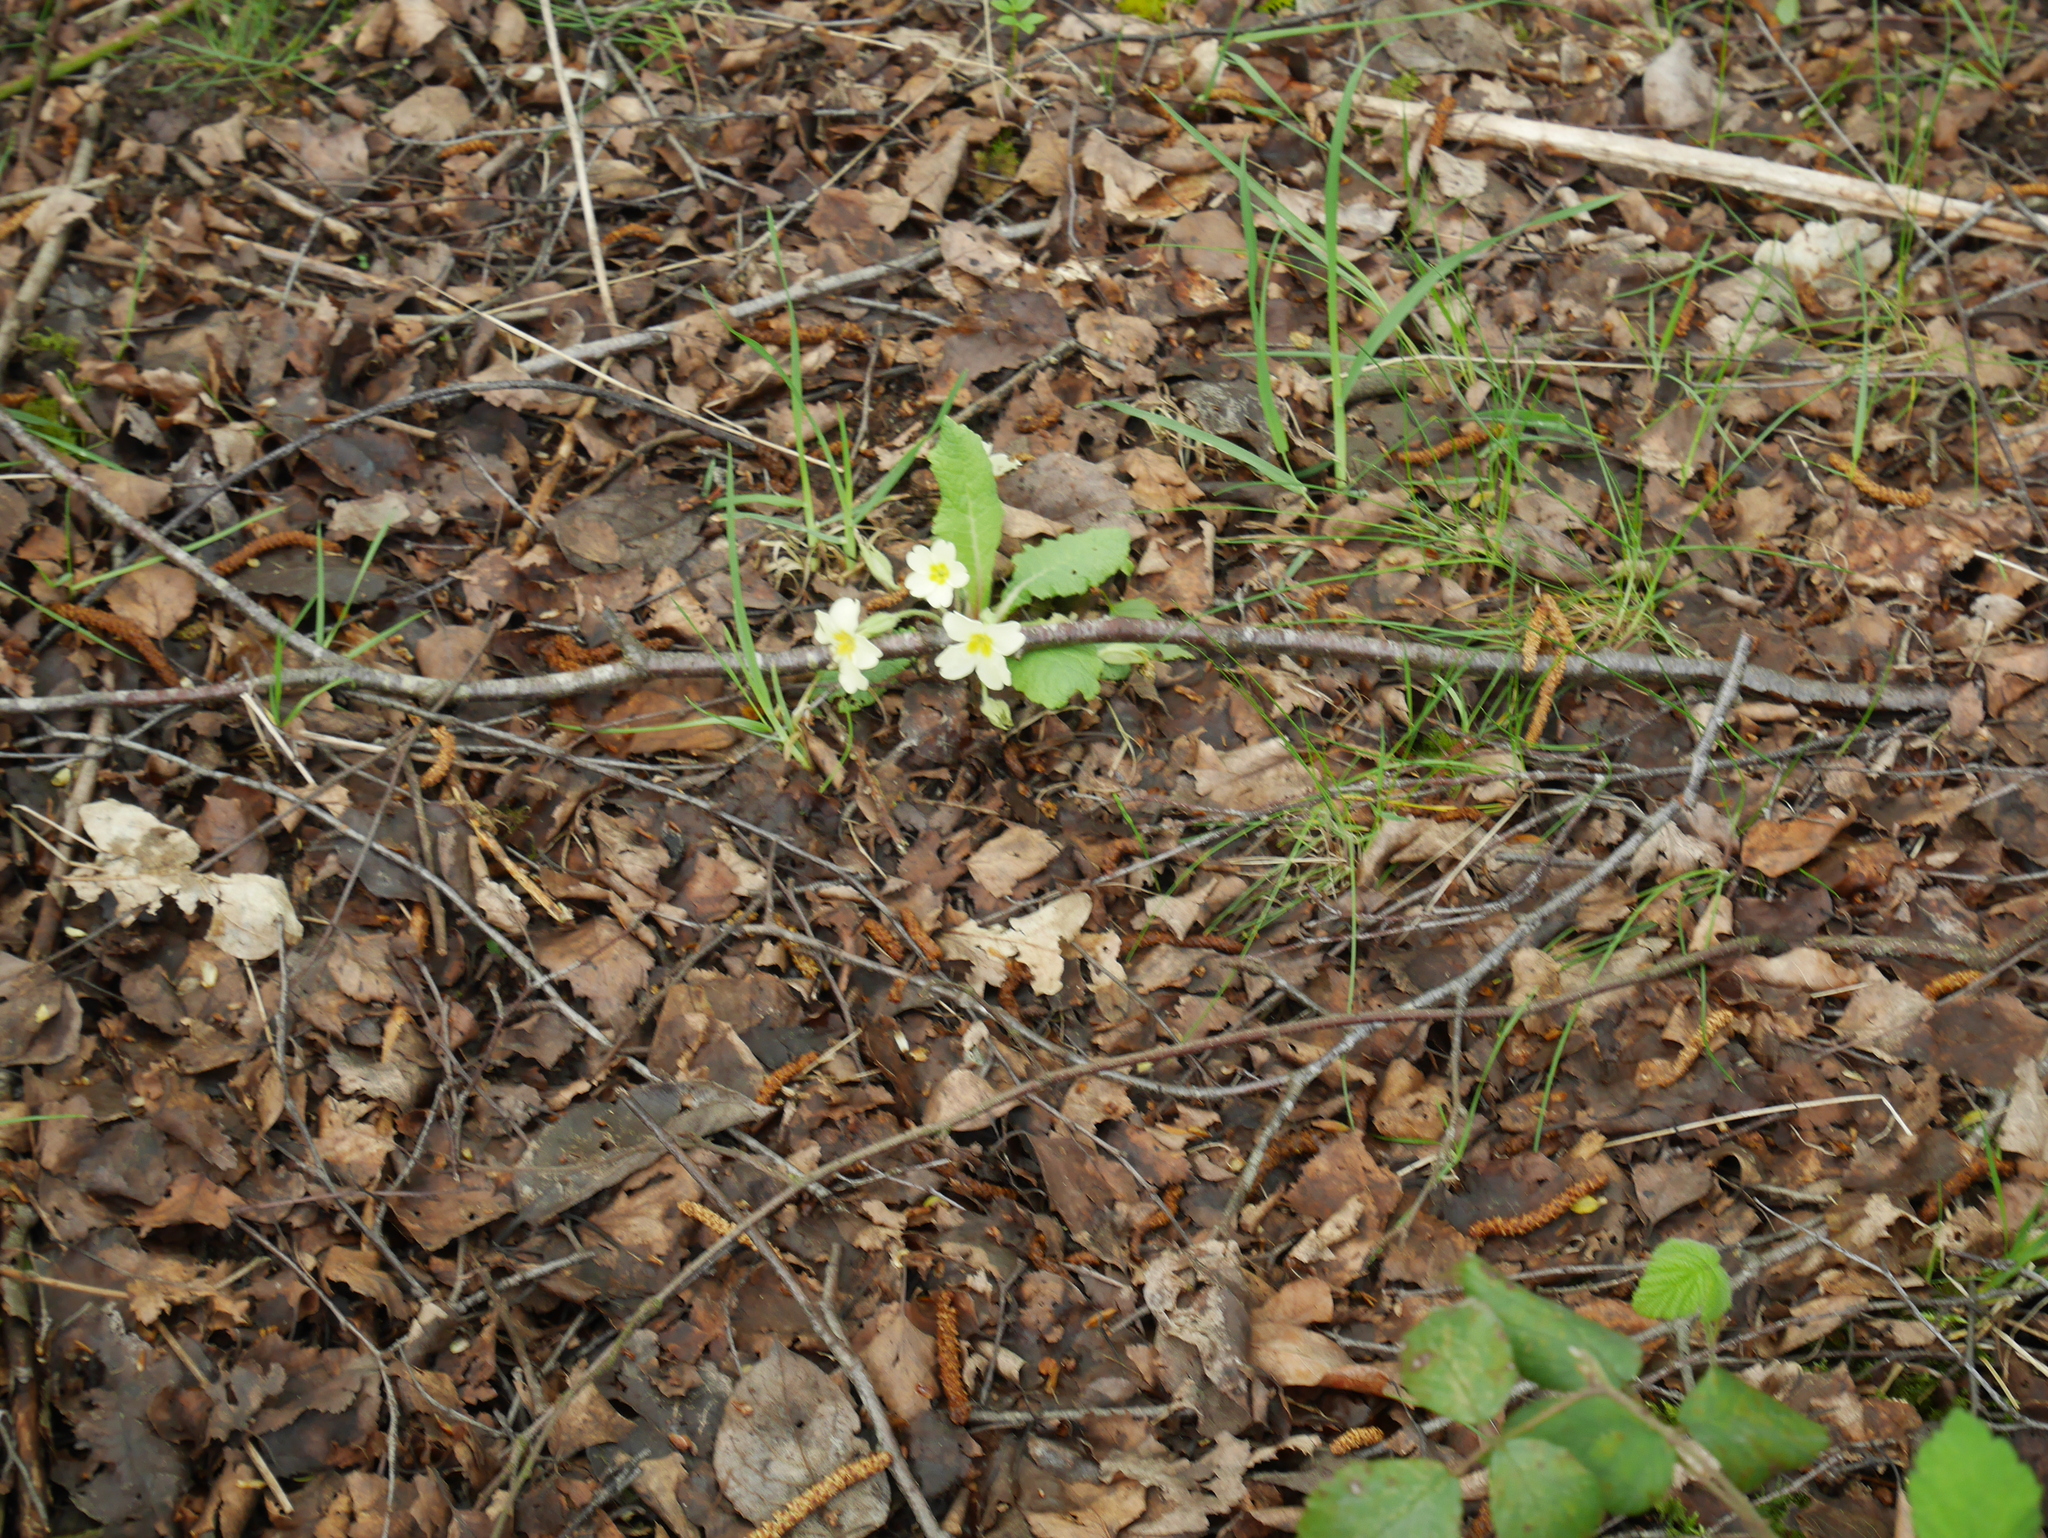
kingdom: Plantae
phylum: Tracheophyta
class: Magnoliopsida
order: Ericales
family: Primulaceae
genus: Primula
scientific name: Primula vulgaris
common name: Primrose
